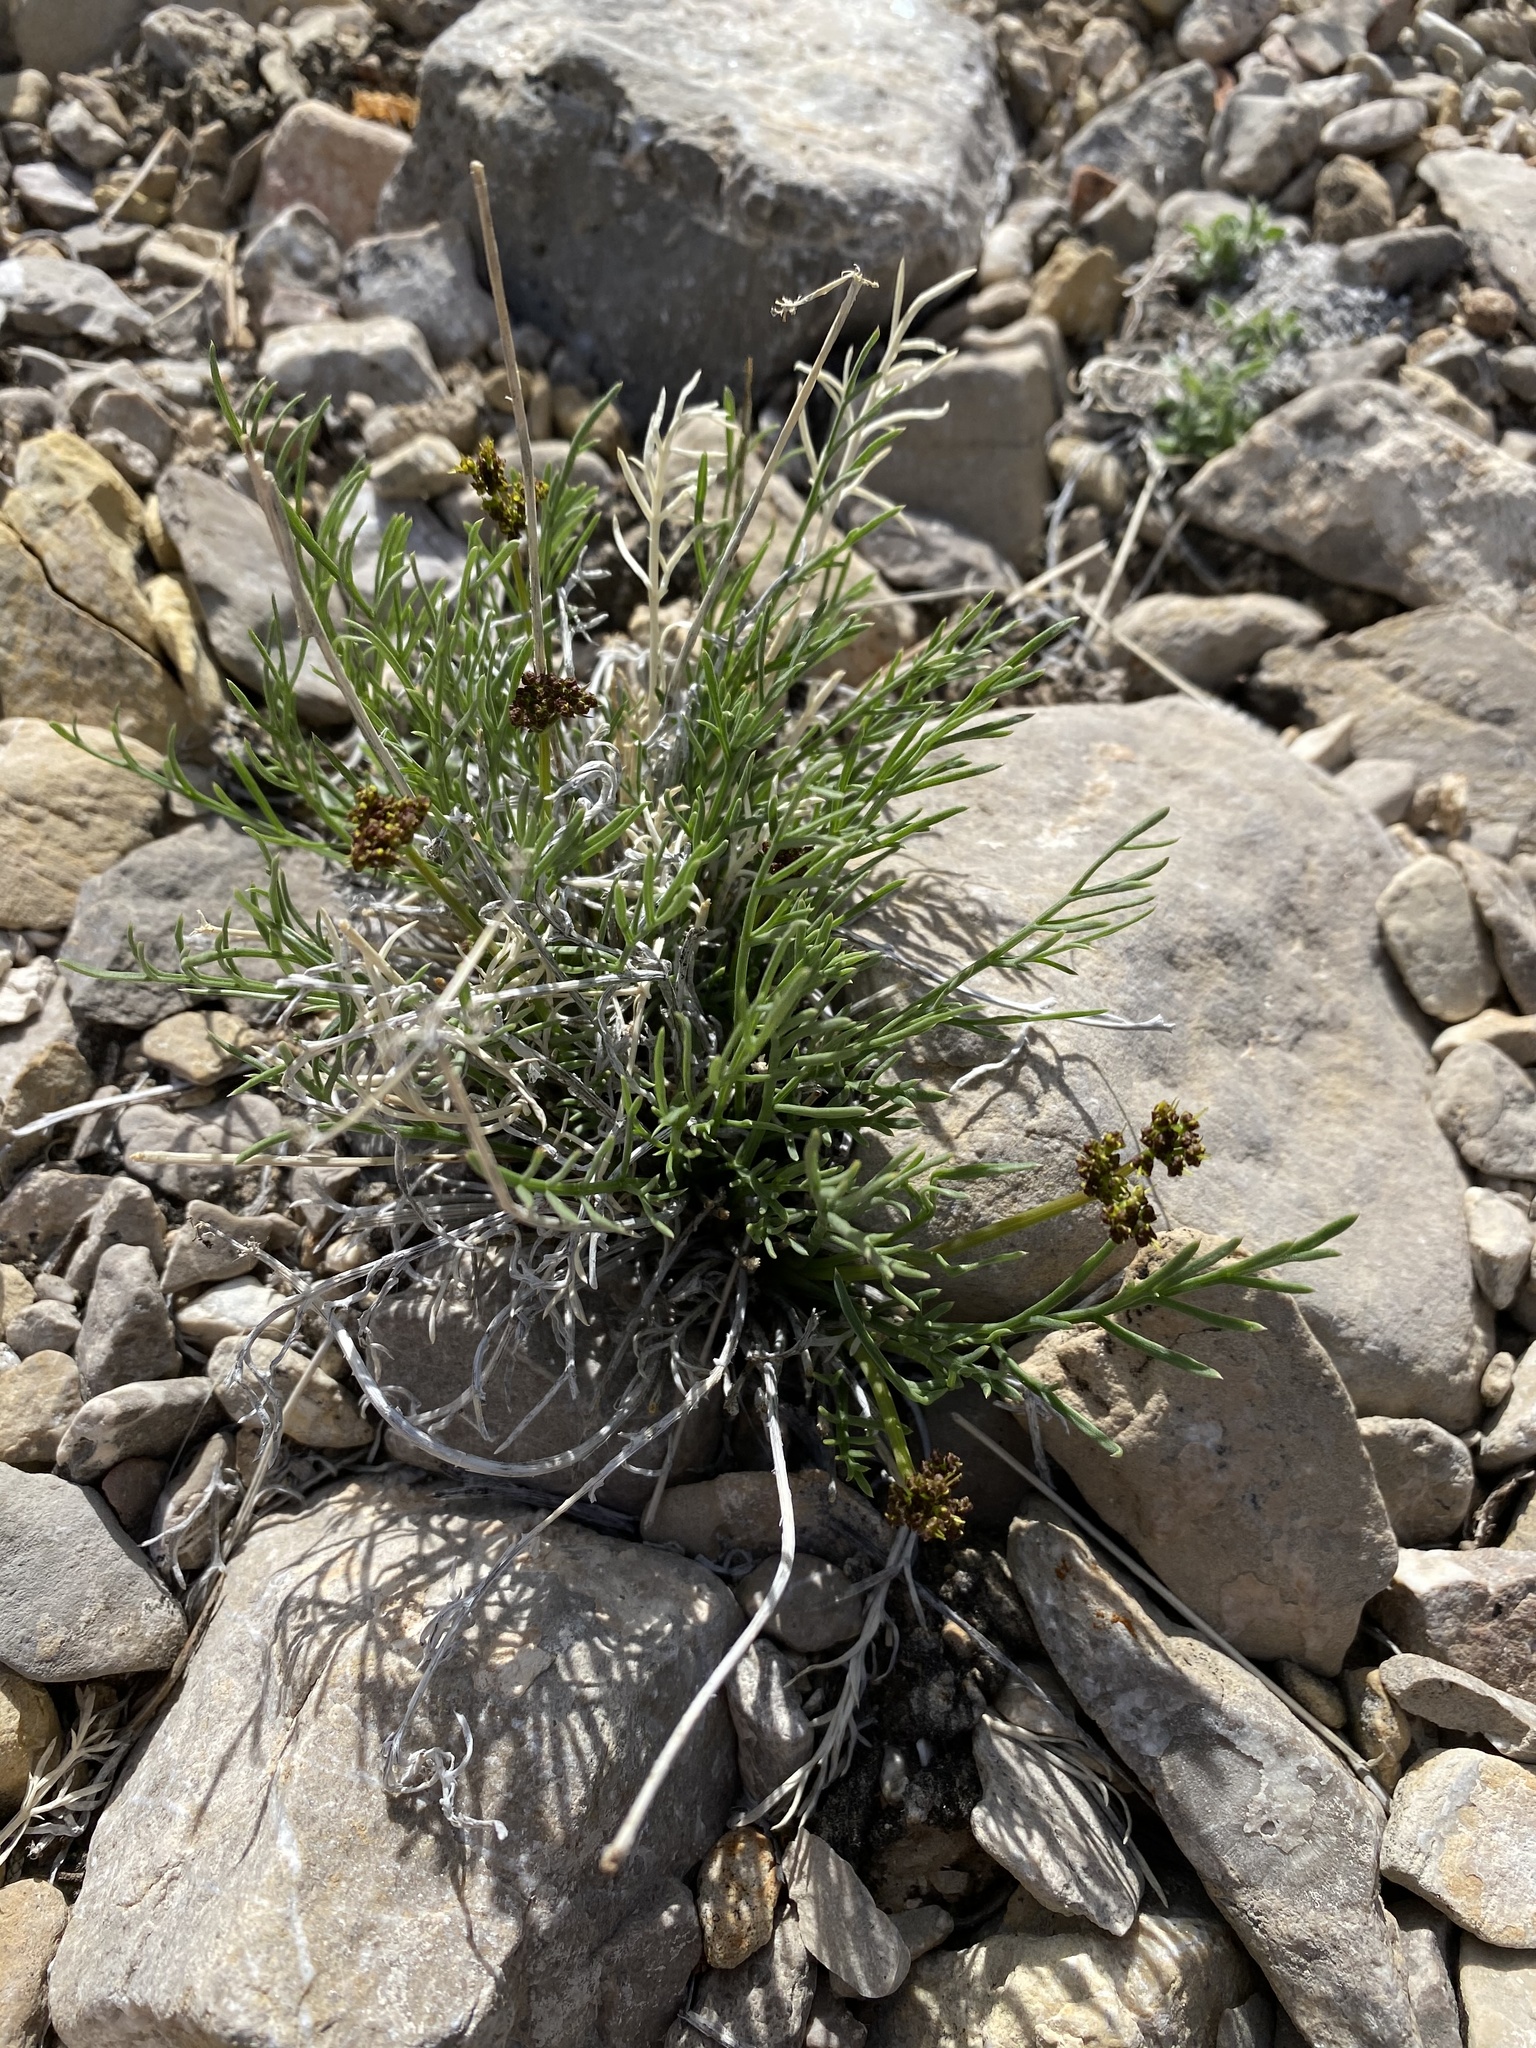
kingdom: Plantae
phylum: Tracheophyta
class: Magnoliopsida
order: Apiales
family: Apiaceae
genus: Lomatium
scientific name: Lomatium graveolens
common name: Stinking lomatium
